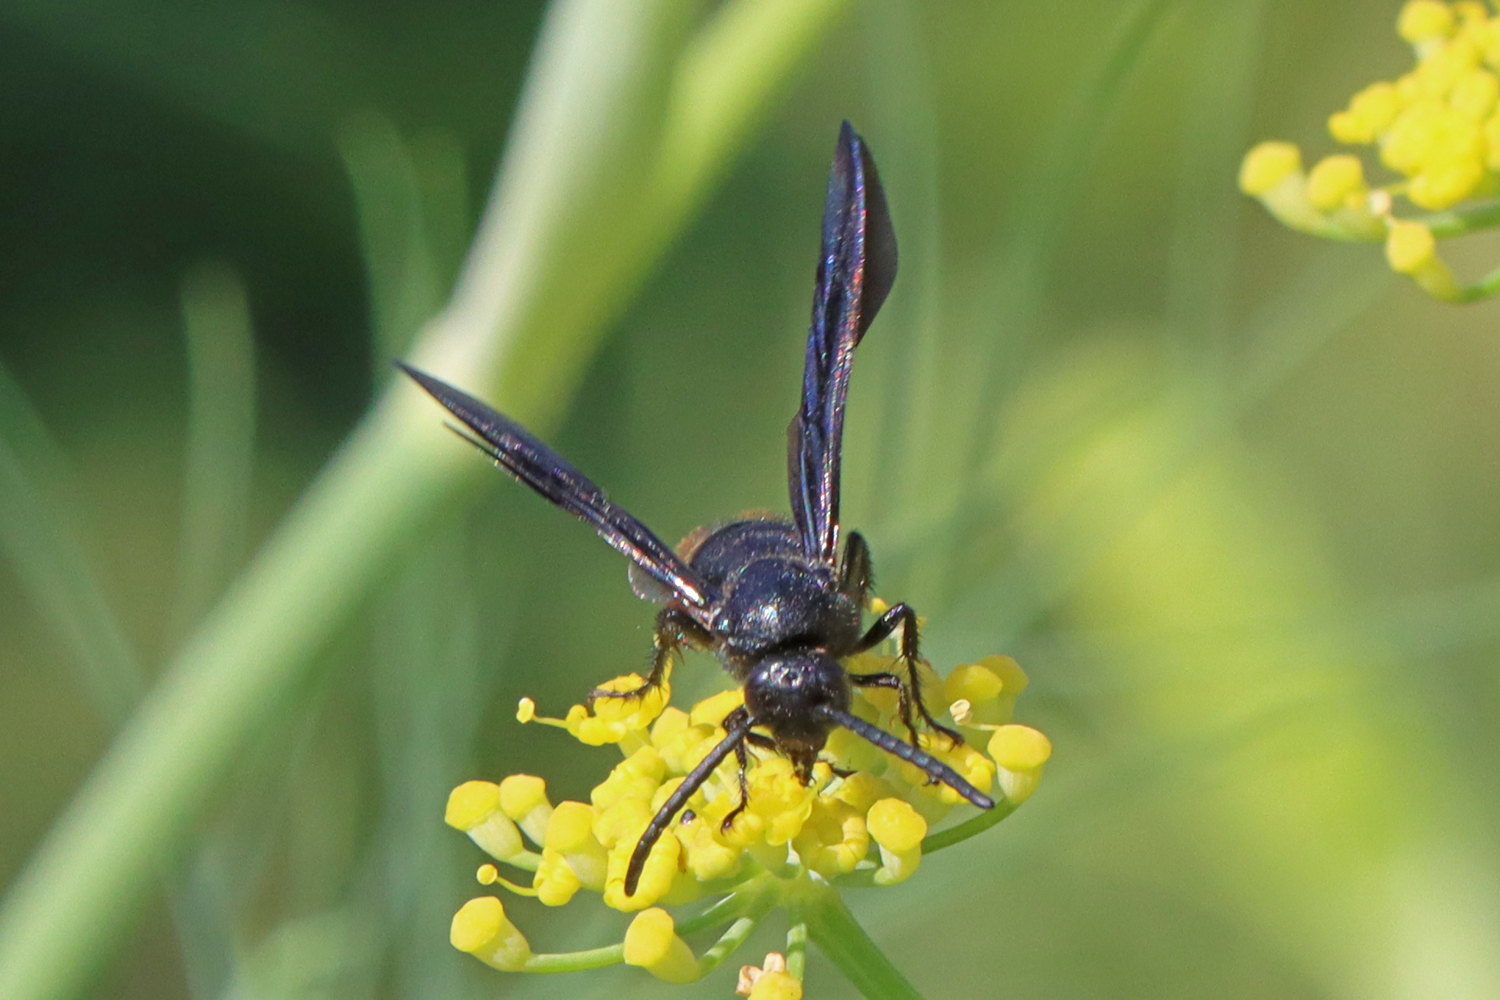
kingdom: Animalia
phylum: Arthropoda
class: Insecta
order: Hymenoptera
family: Scoliidae
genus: Scolia
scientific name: Scolia dubia
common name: Blue-winged scoliid wasp
